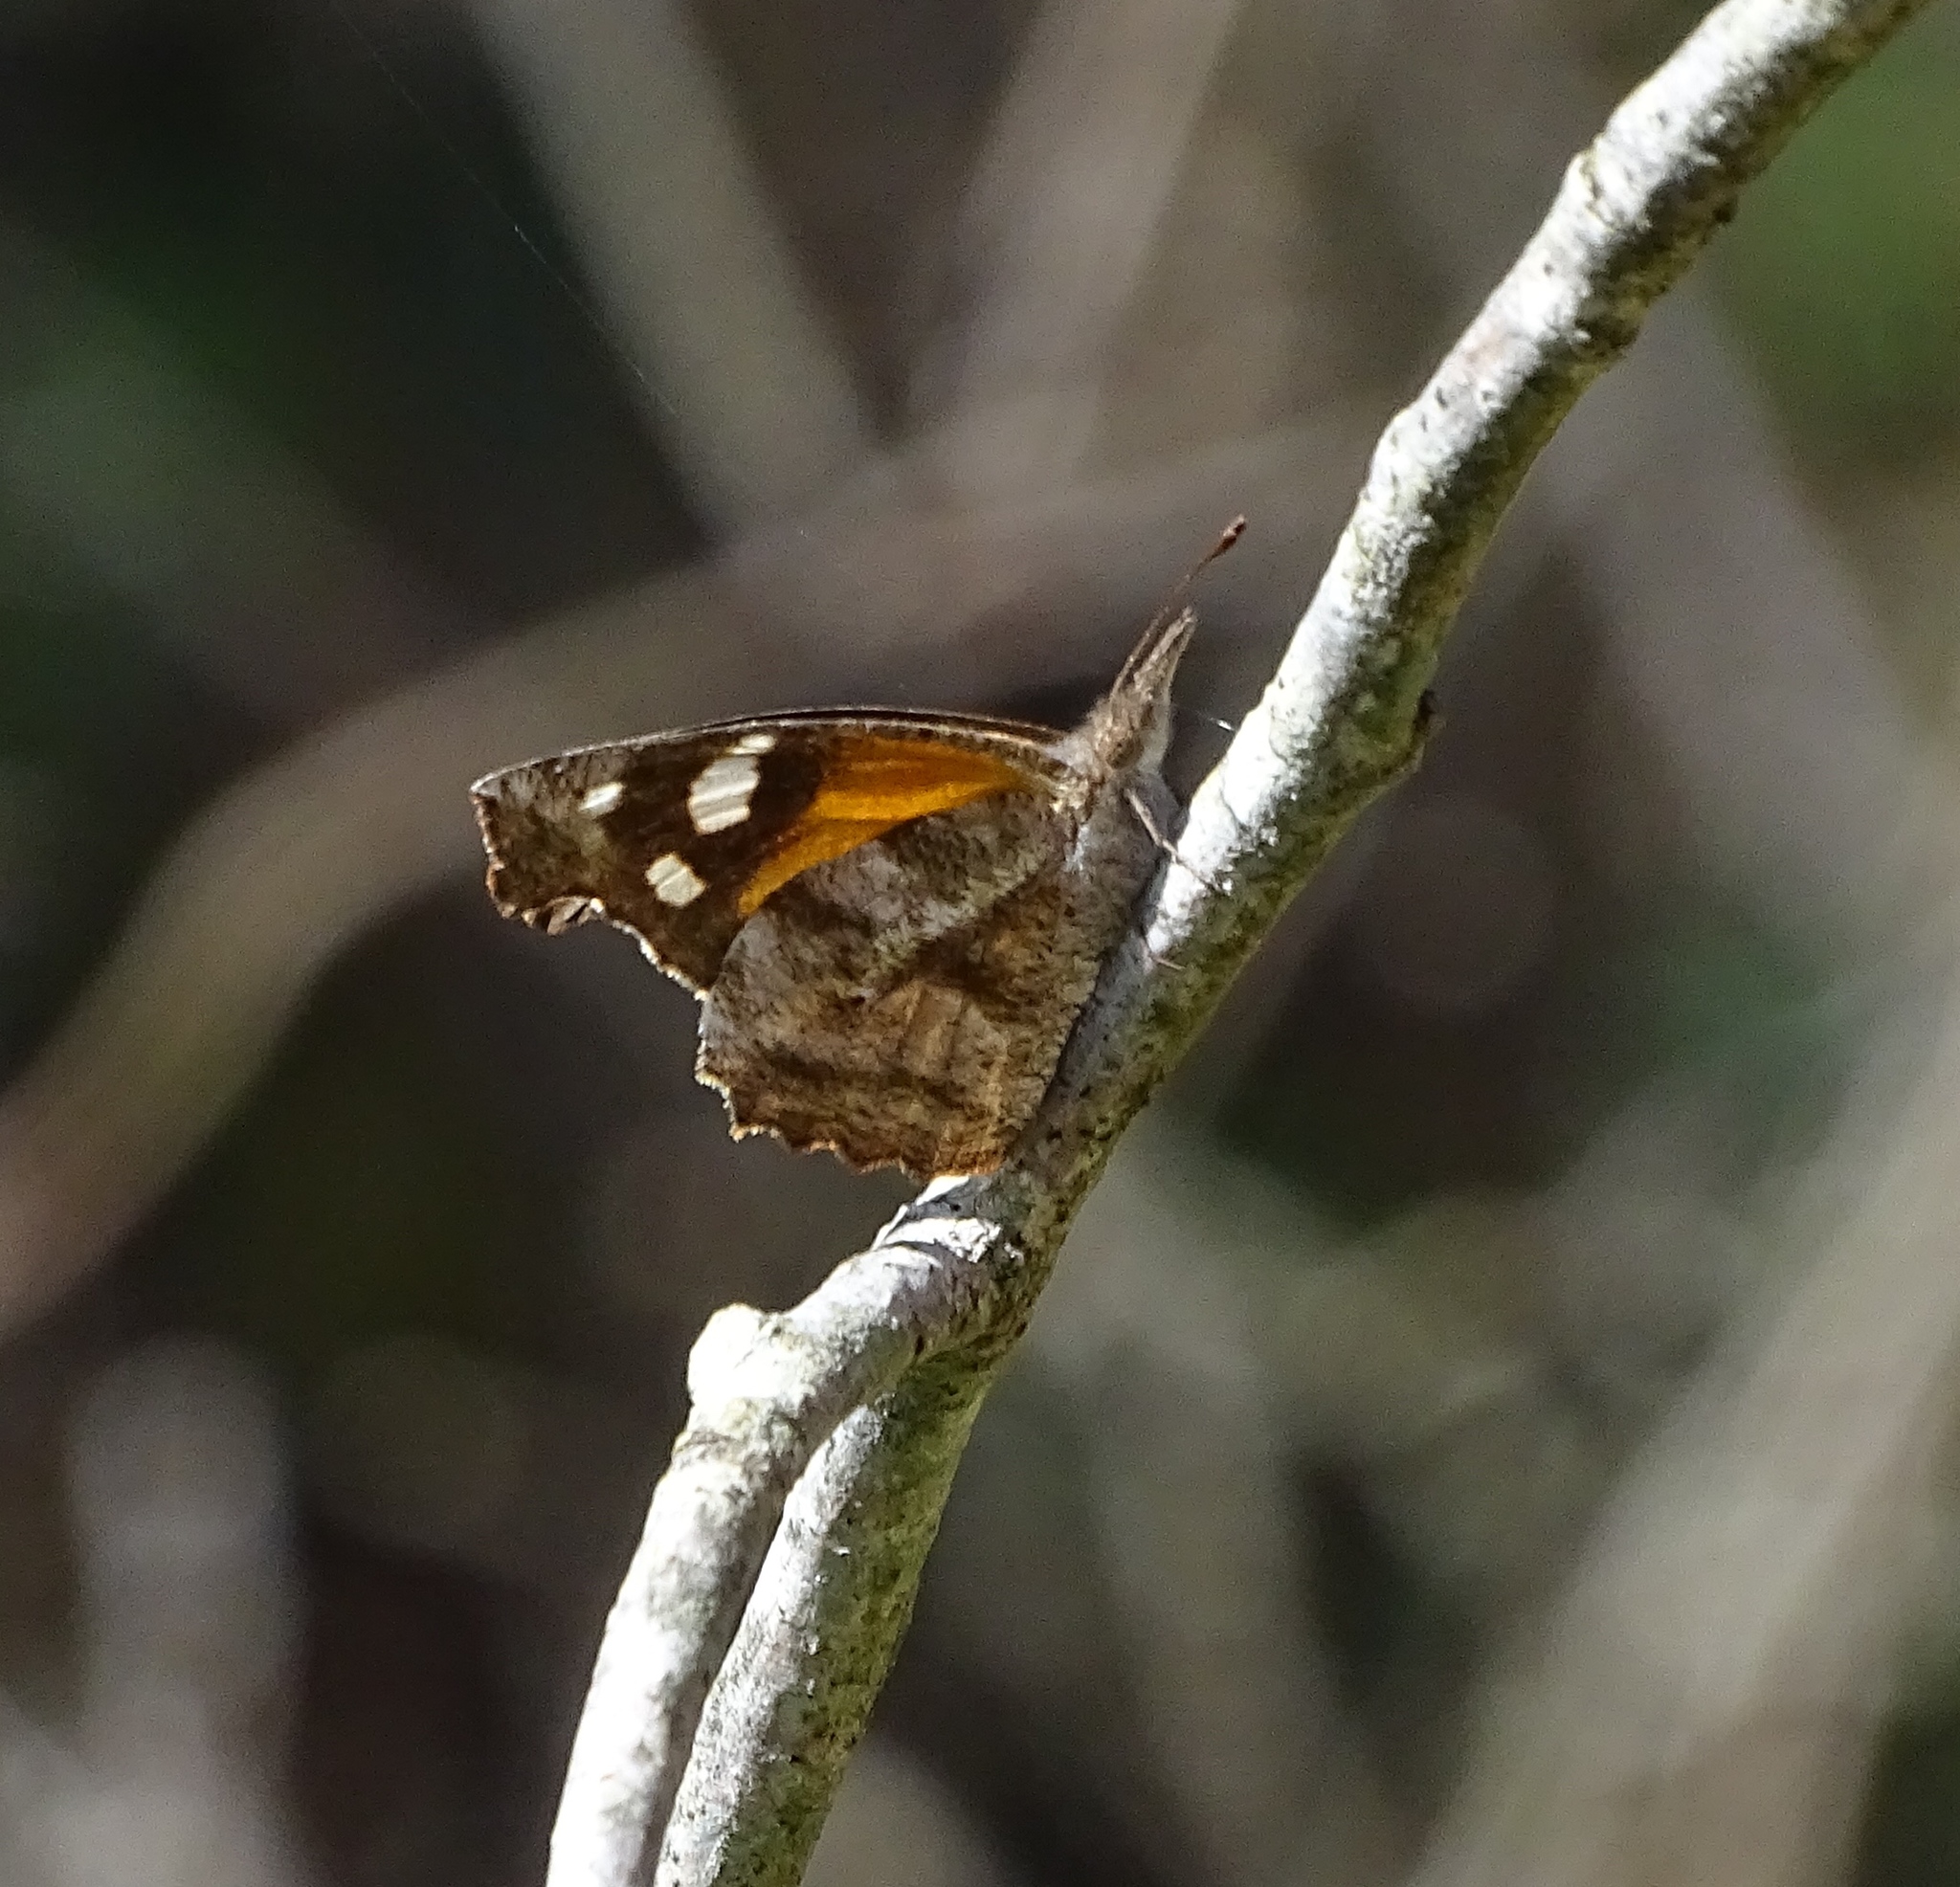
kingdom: Animalia
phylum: Arthropoda
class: Insecta
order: Lepidoptera
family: Nymphalidae
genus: Libytheana
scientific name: Libytheana carinenta
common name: American snout
